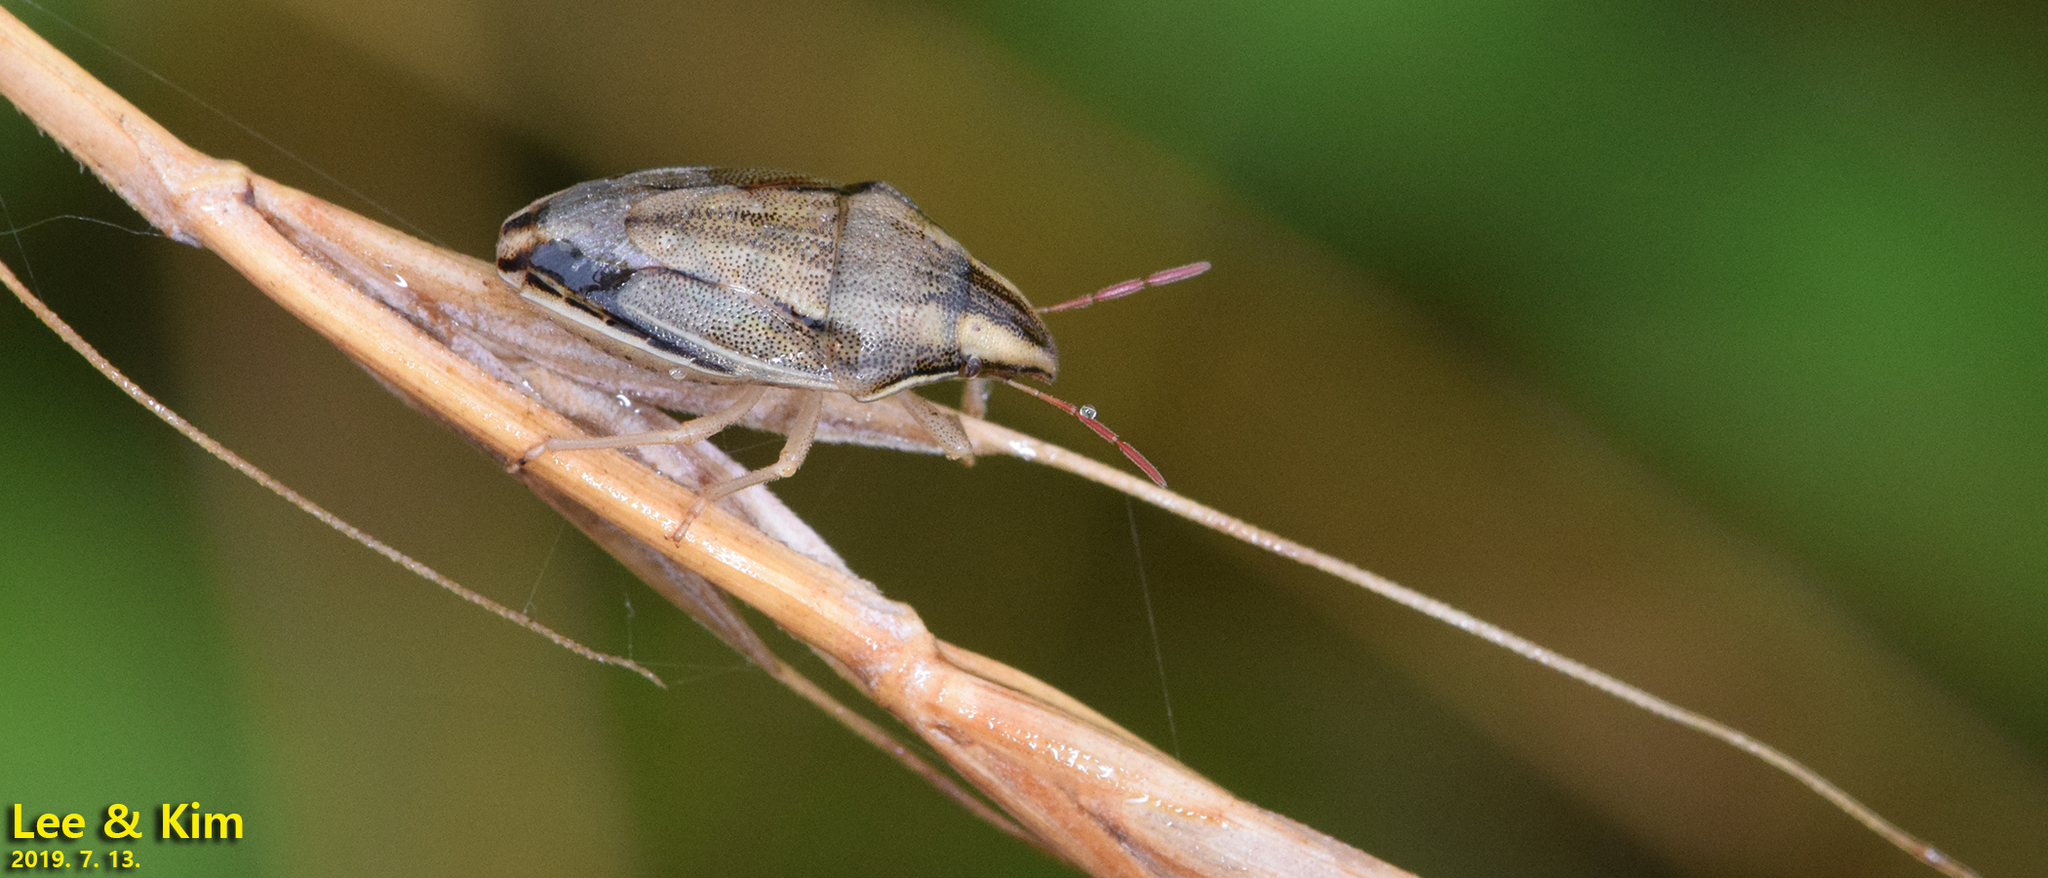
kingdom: Animalia
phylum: Arthropoda
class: Insecta
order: Hemiptera
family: Pentatomidae
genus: Aelia
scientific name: Aelia
